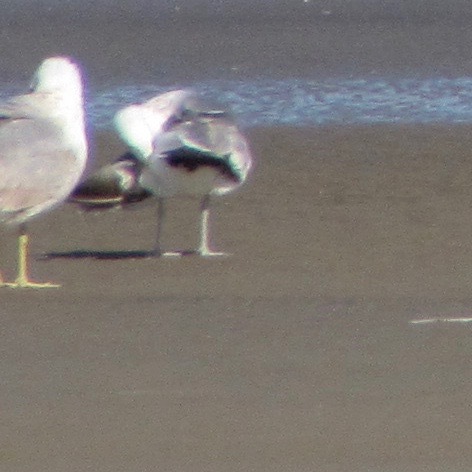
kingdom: Animalia
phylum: Chordata
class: Aves
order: Charadriiformes
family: Laridae
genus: Larus
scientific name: Larus californicus
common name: California gull
